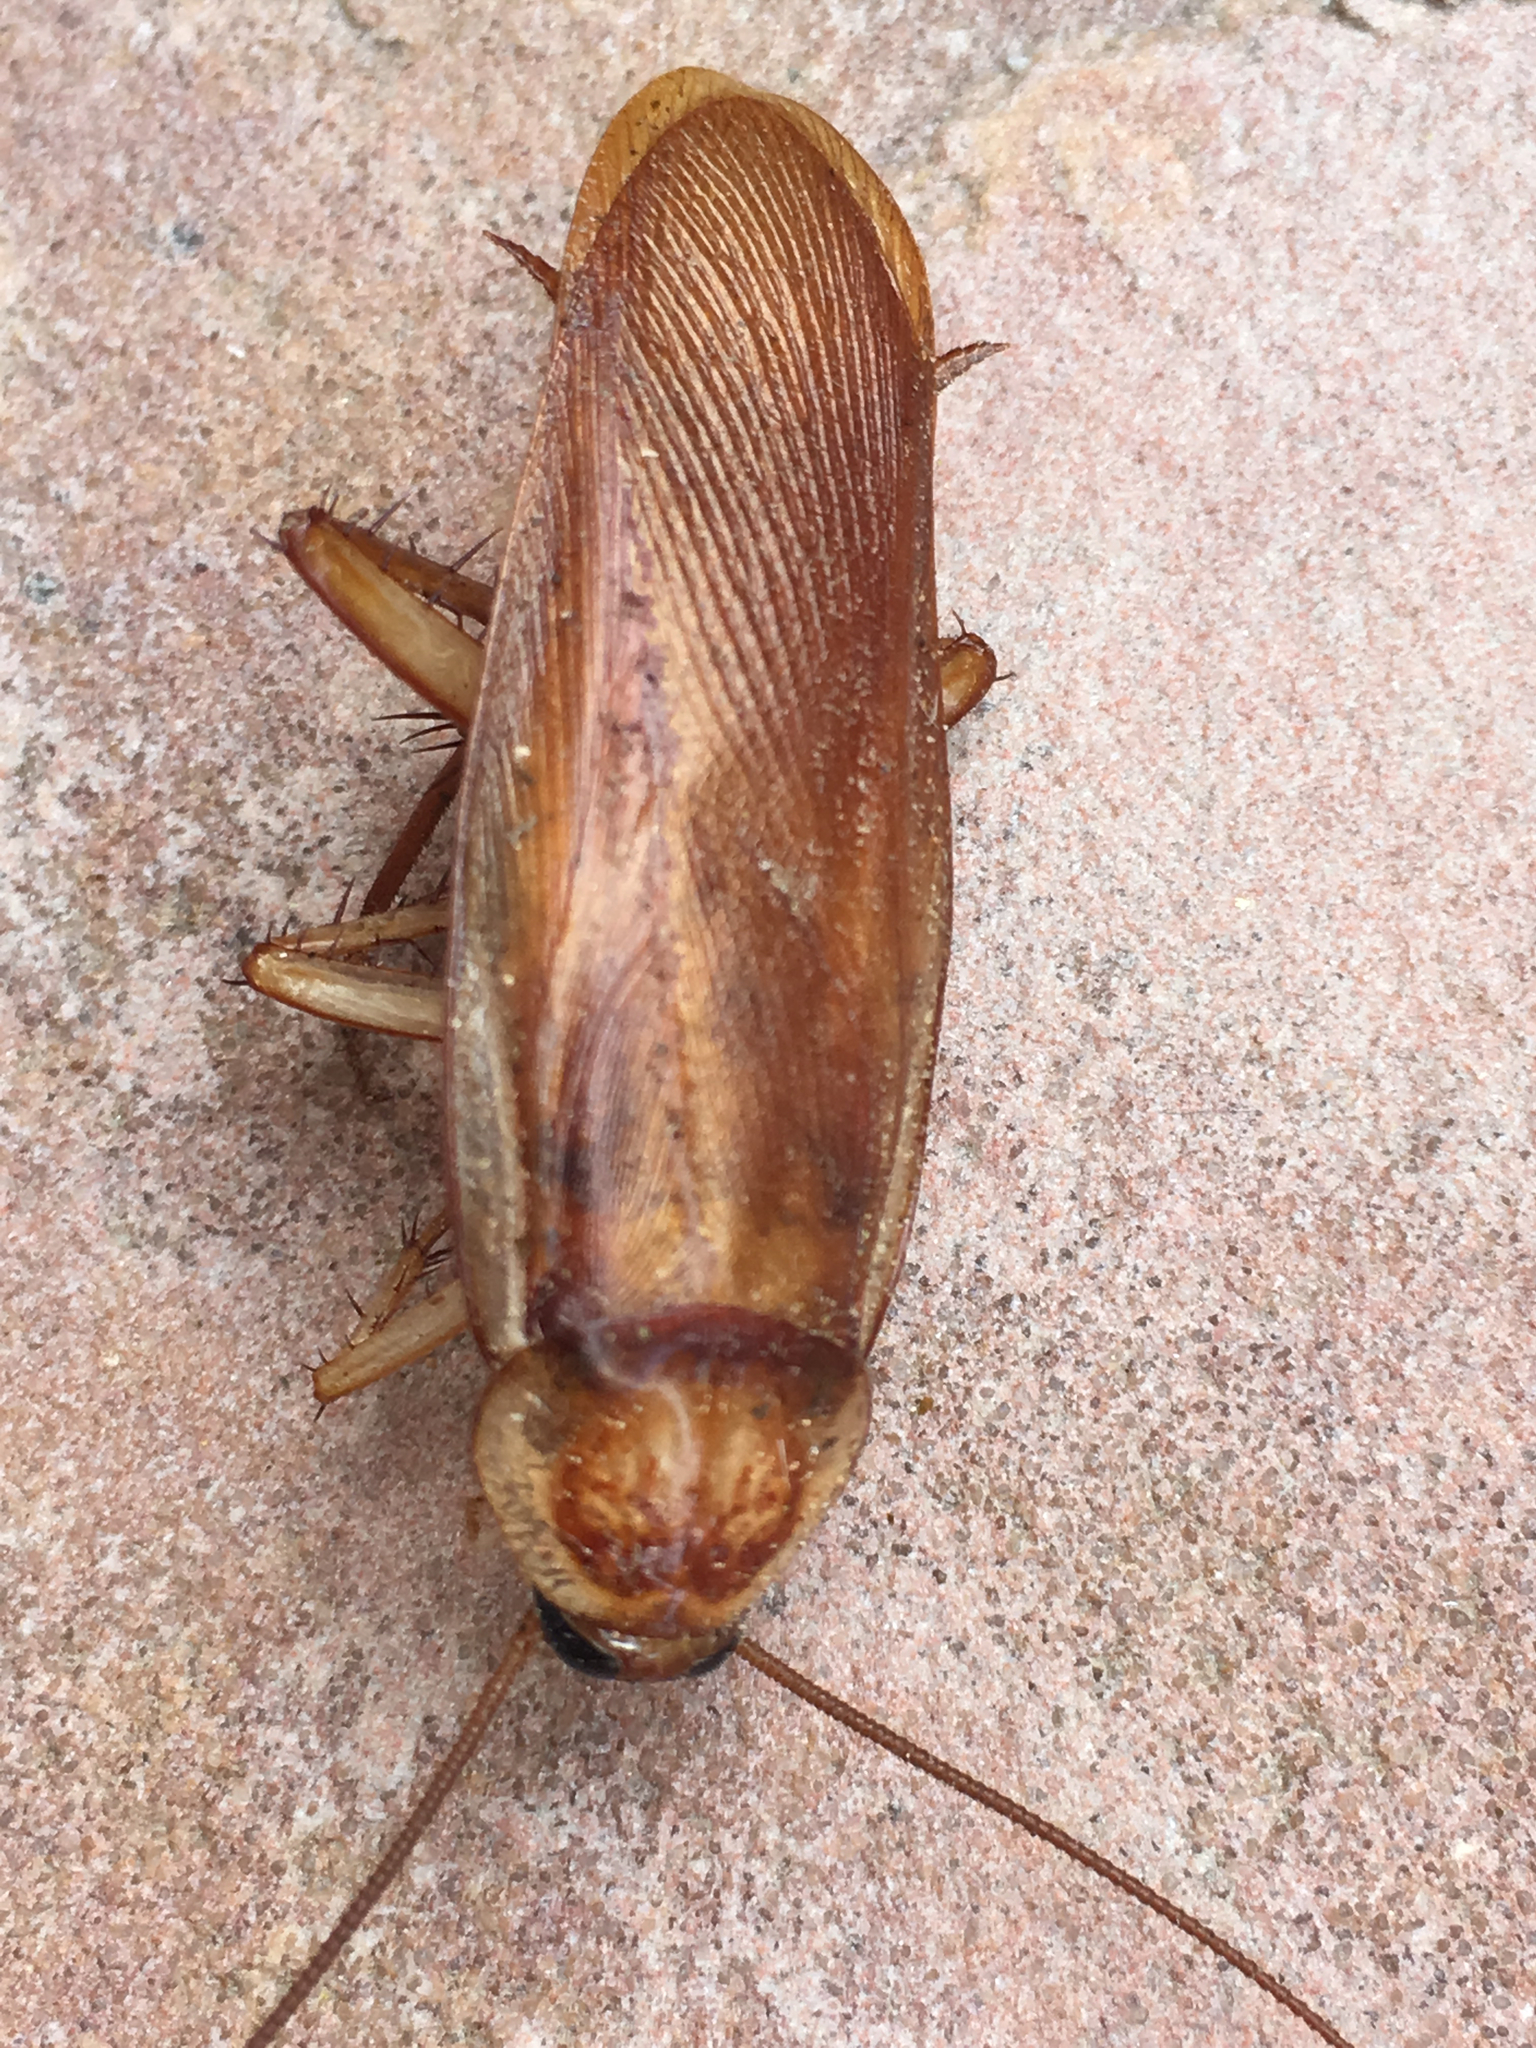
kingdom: Animalia
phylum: Arthropoda
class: Insecta
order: Blattodea
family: Blattidae
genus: Periplaneta
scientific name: Periplaneta lateralis
